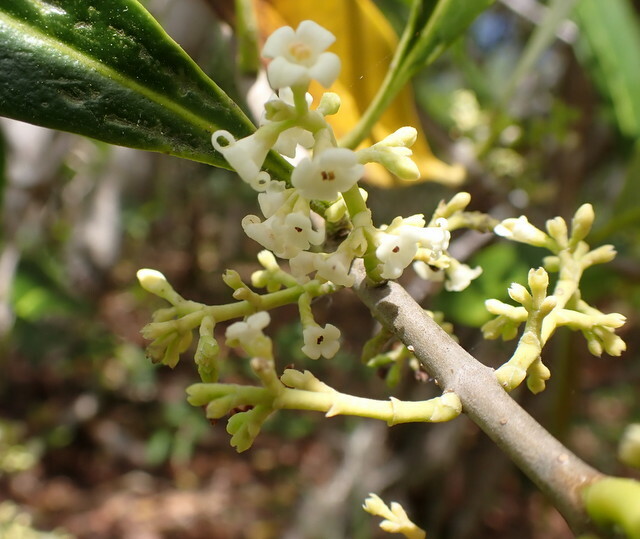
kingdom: Plantae
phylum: Tracheophyta
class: Magnoliopsida
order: Lamiales
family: Oleaceae
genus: Cartrema
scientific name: Cartrema americana
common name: Devilwood
